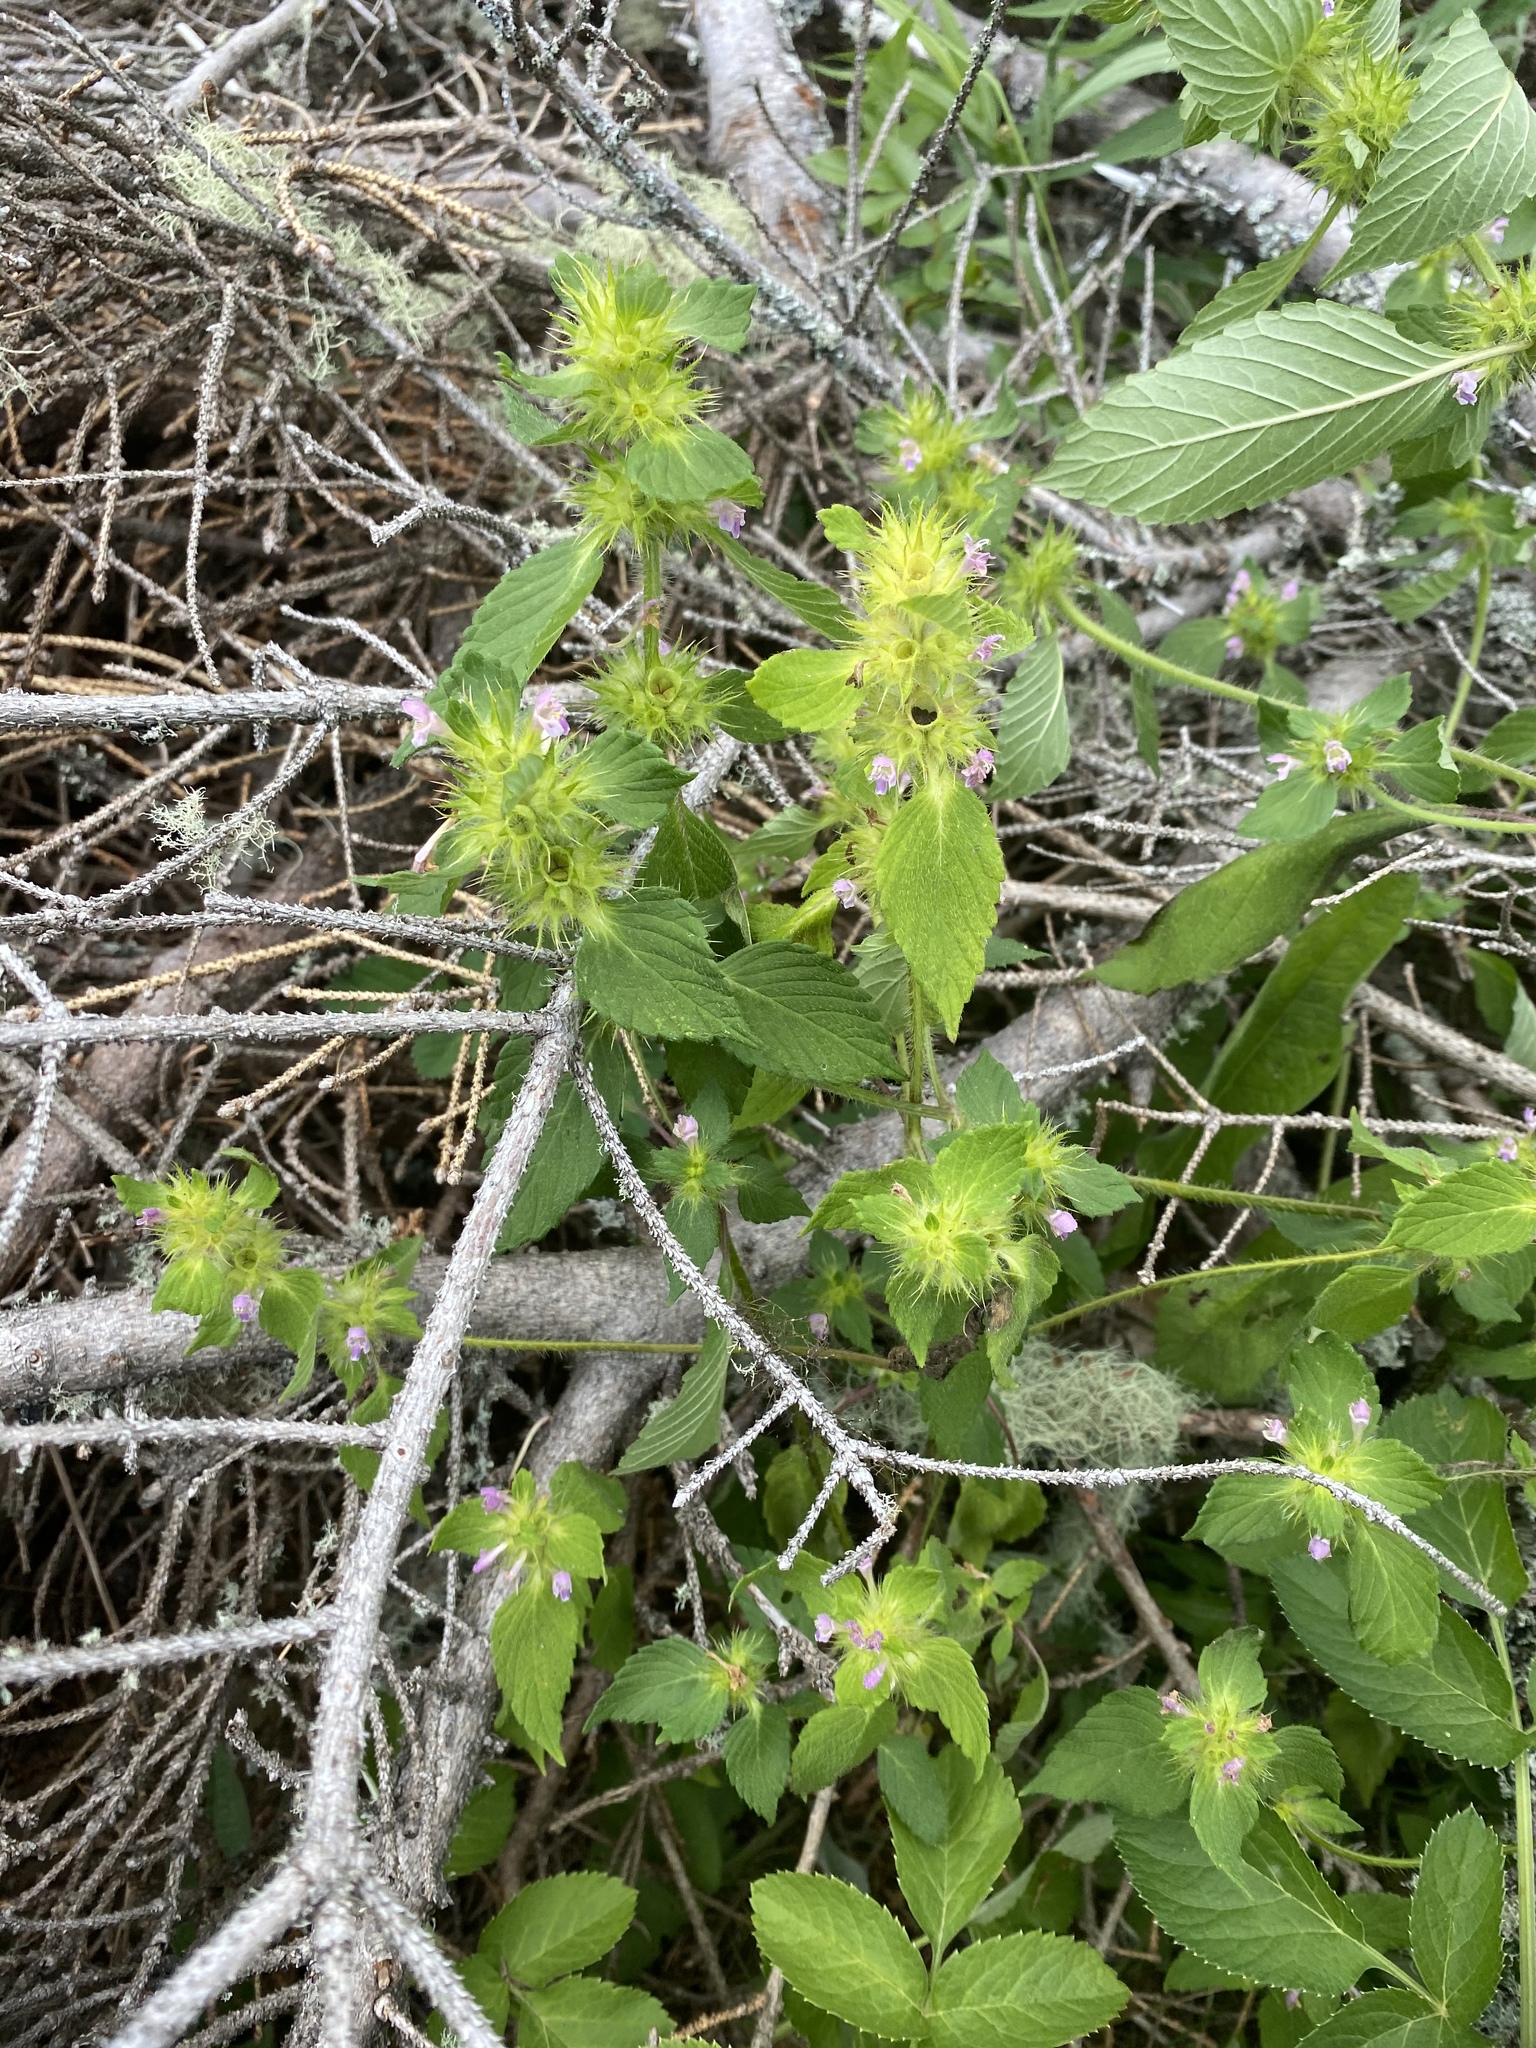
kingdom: Plantae
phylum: Tracheophyta
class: Magnoliopsida
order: Lamiales
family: Lamiaceae
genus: Galeopsis
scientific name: Galeopsis bifida
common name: Bifid hemp-nettle
